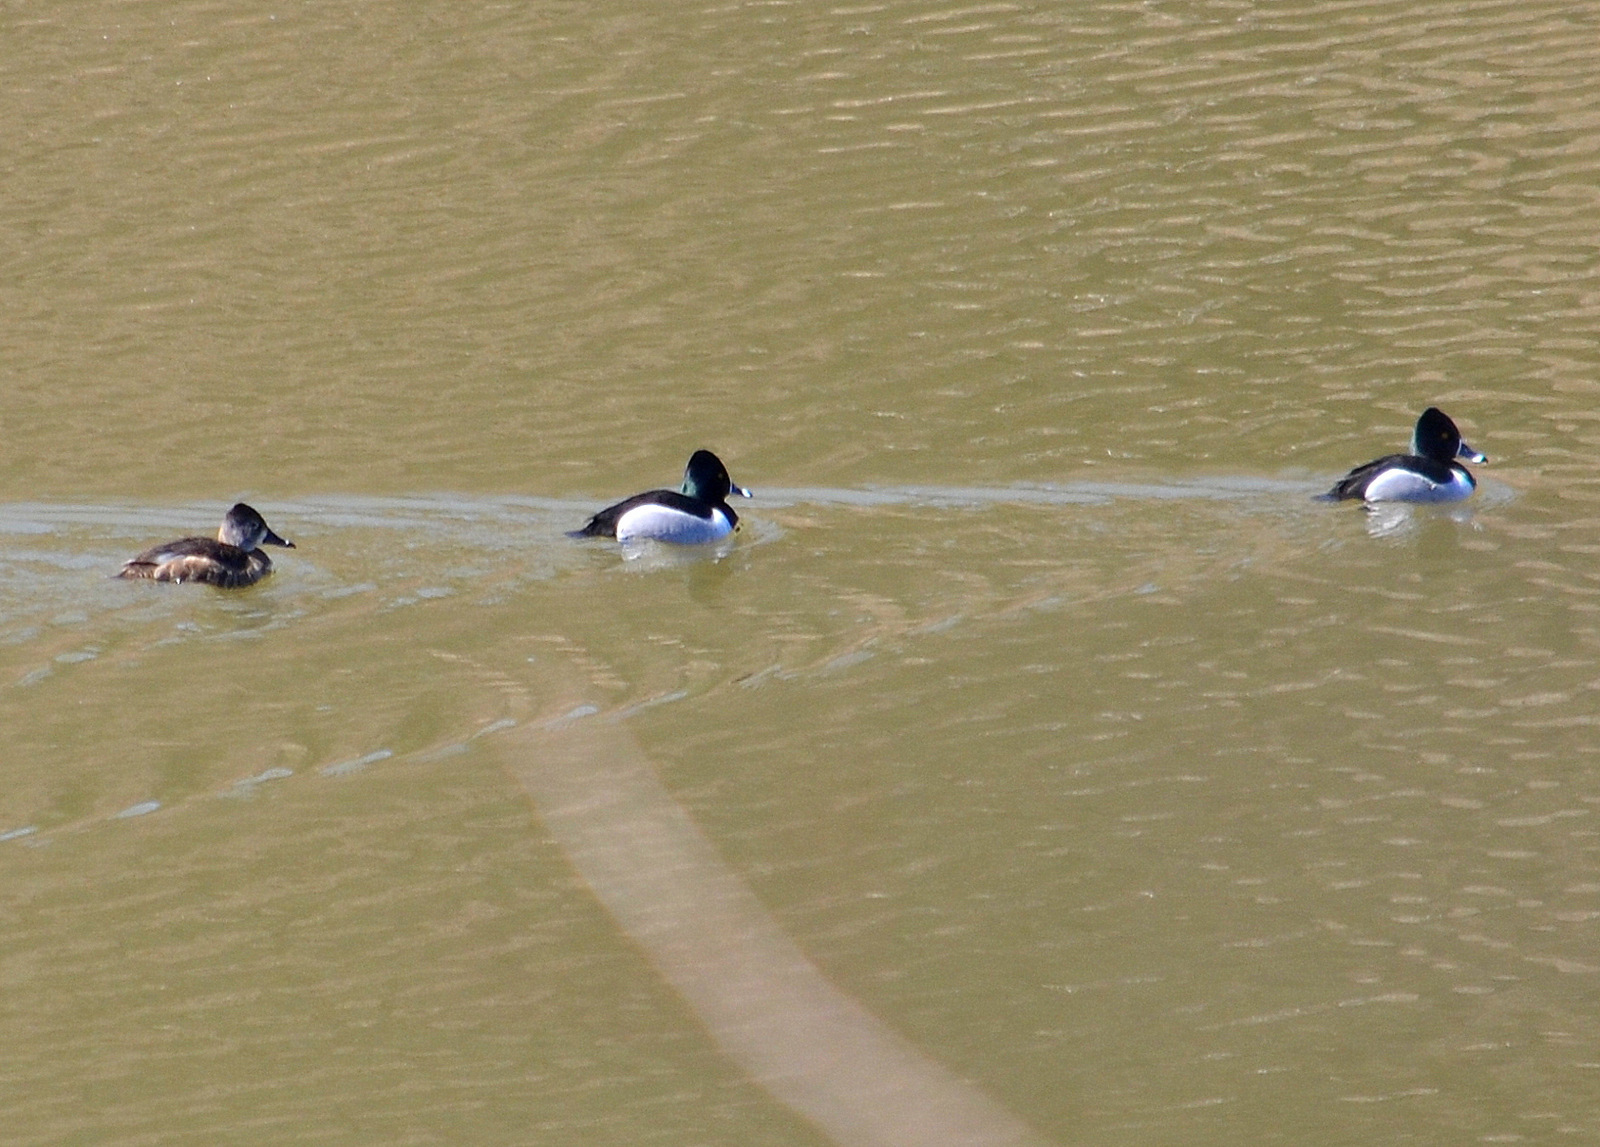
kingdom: Animalia
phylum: Chordata
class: Aves
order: Anseriformes
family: Anatidae
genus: Aythya
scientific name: Aythya collaris
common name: Ring-necked duck
